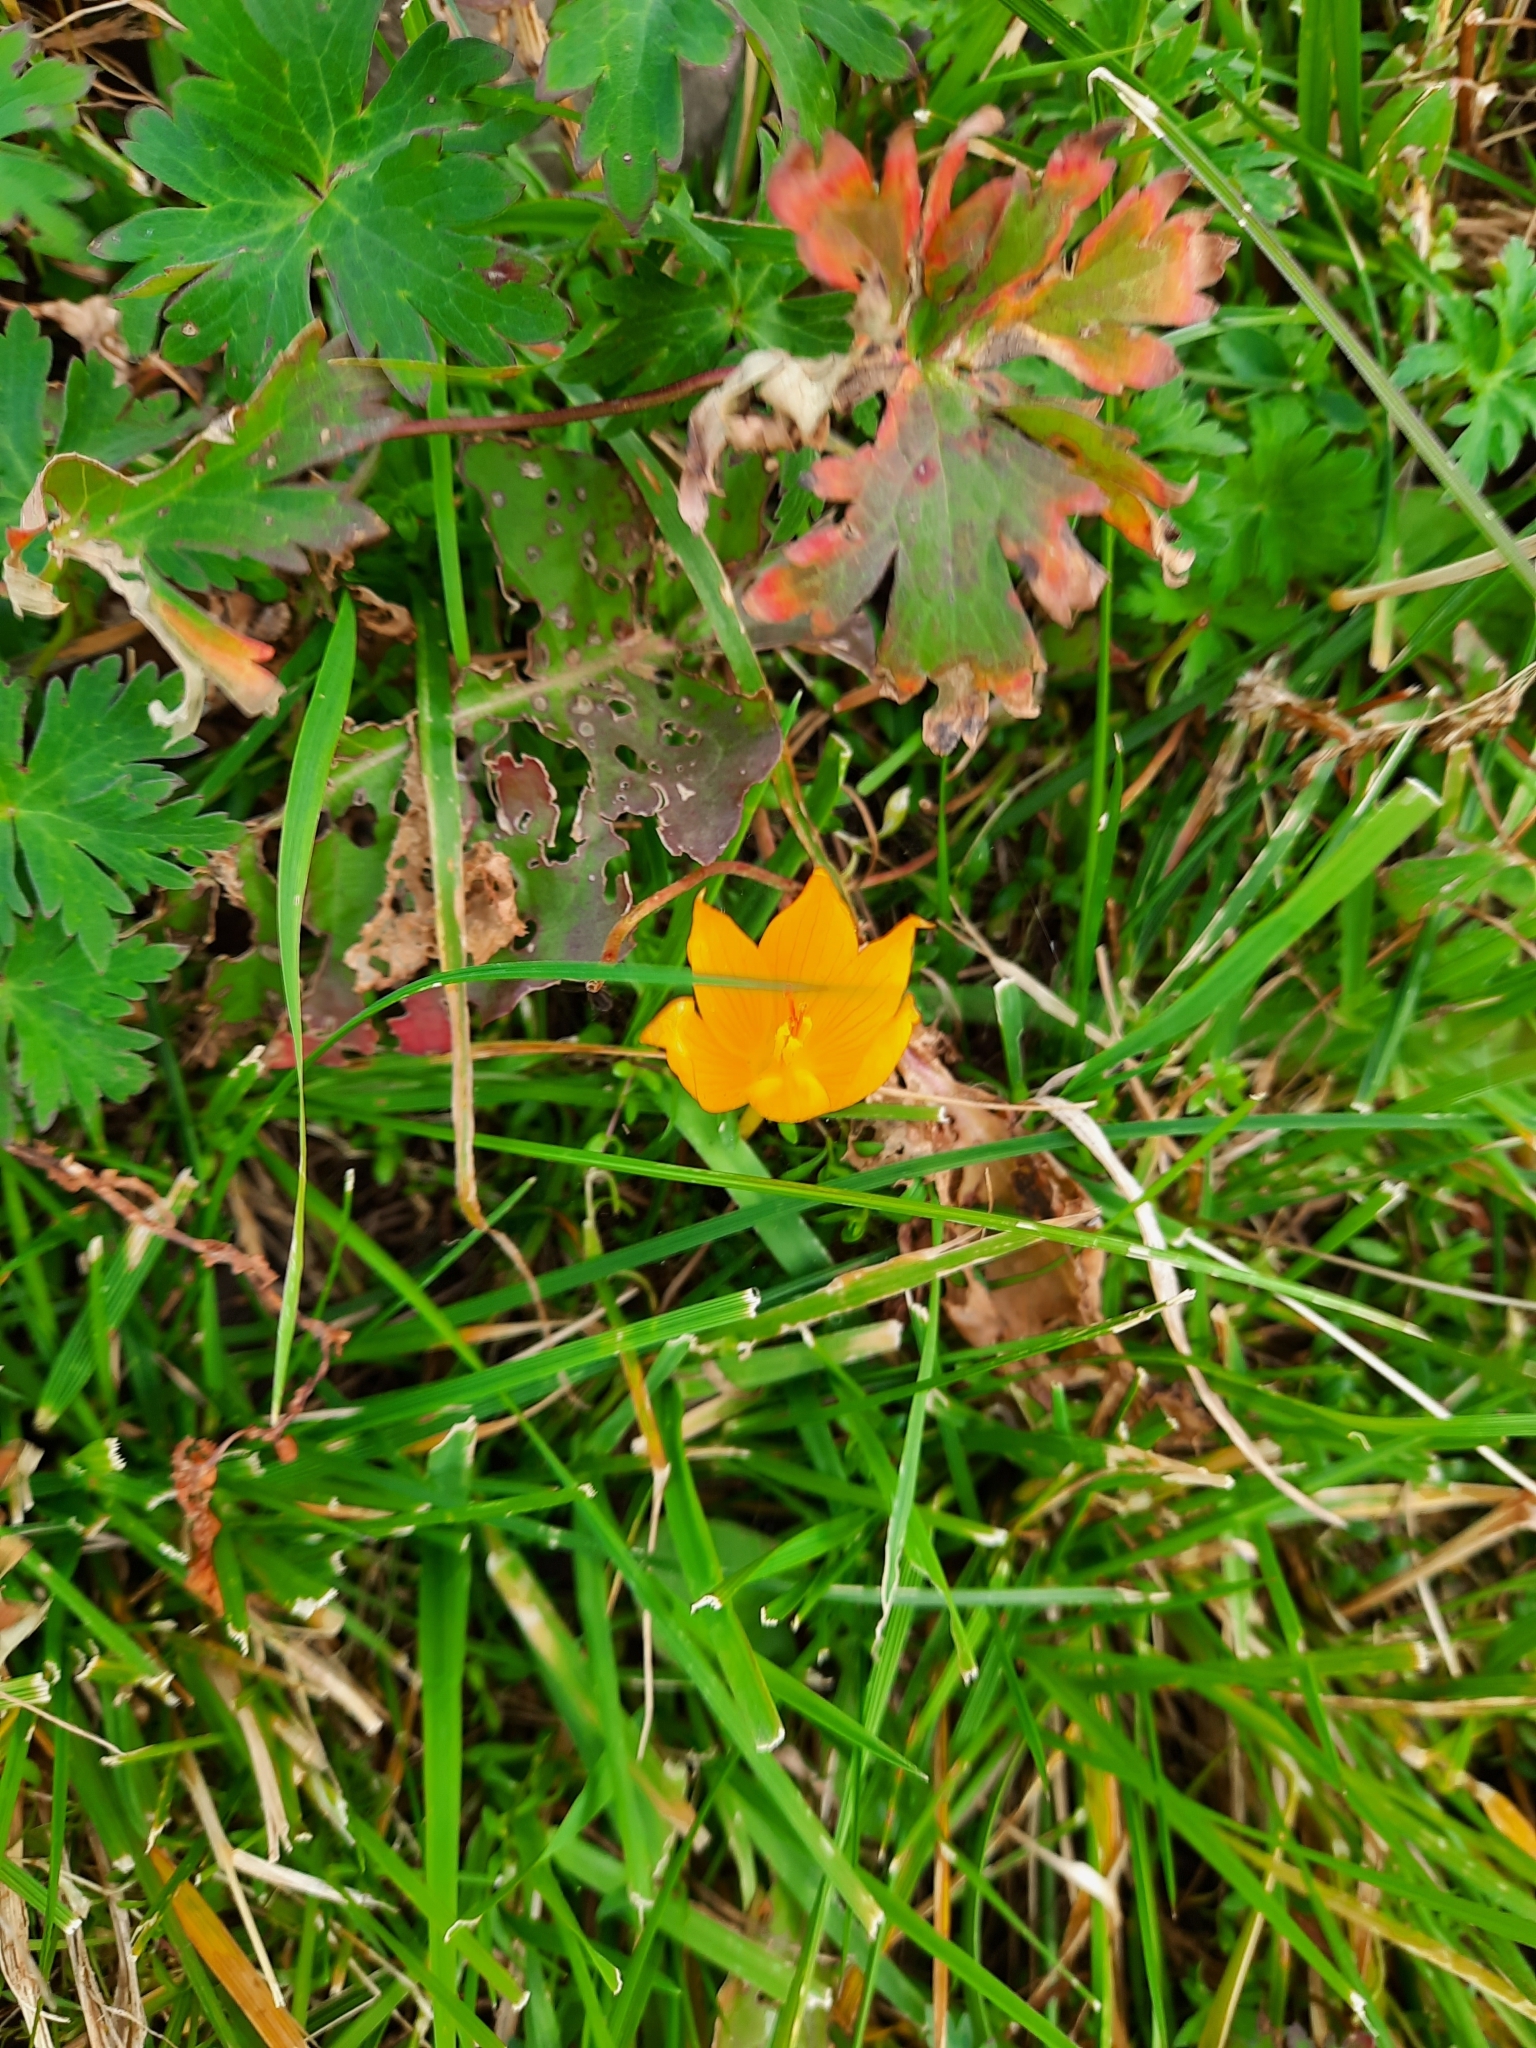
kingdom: Plantae
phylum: Tracheophyta
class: Liliopsida
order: Asparagales
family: Iridaceae
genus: Crocus
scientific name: Crocus scharojanii
